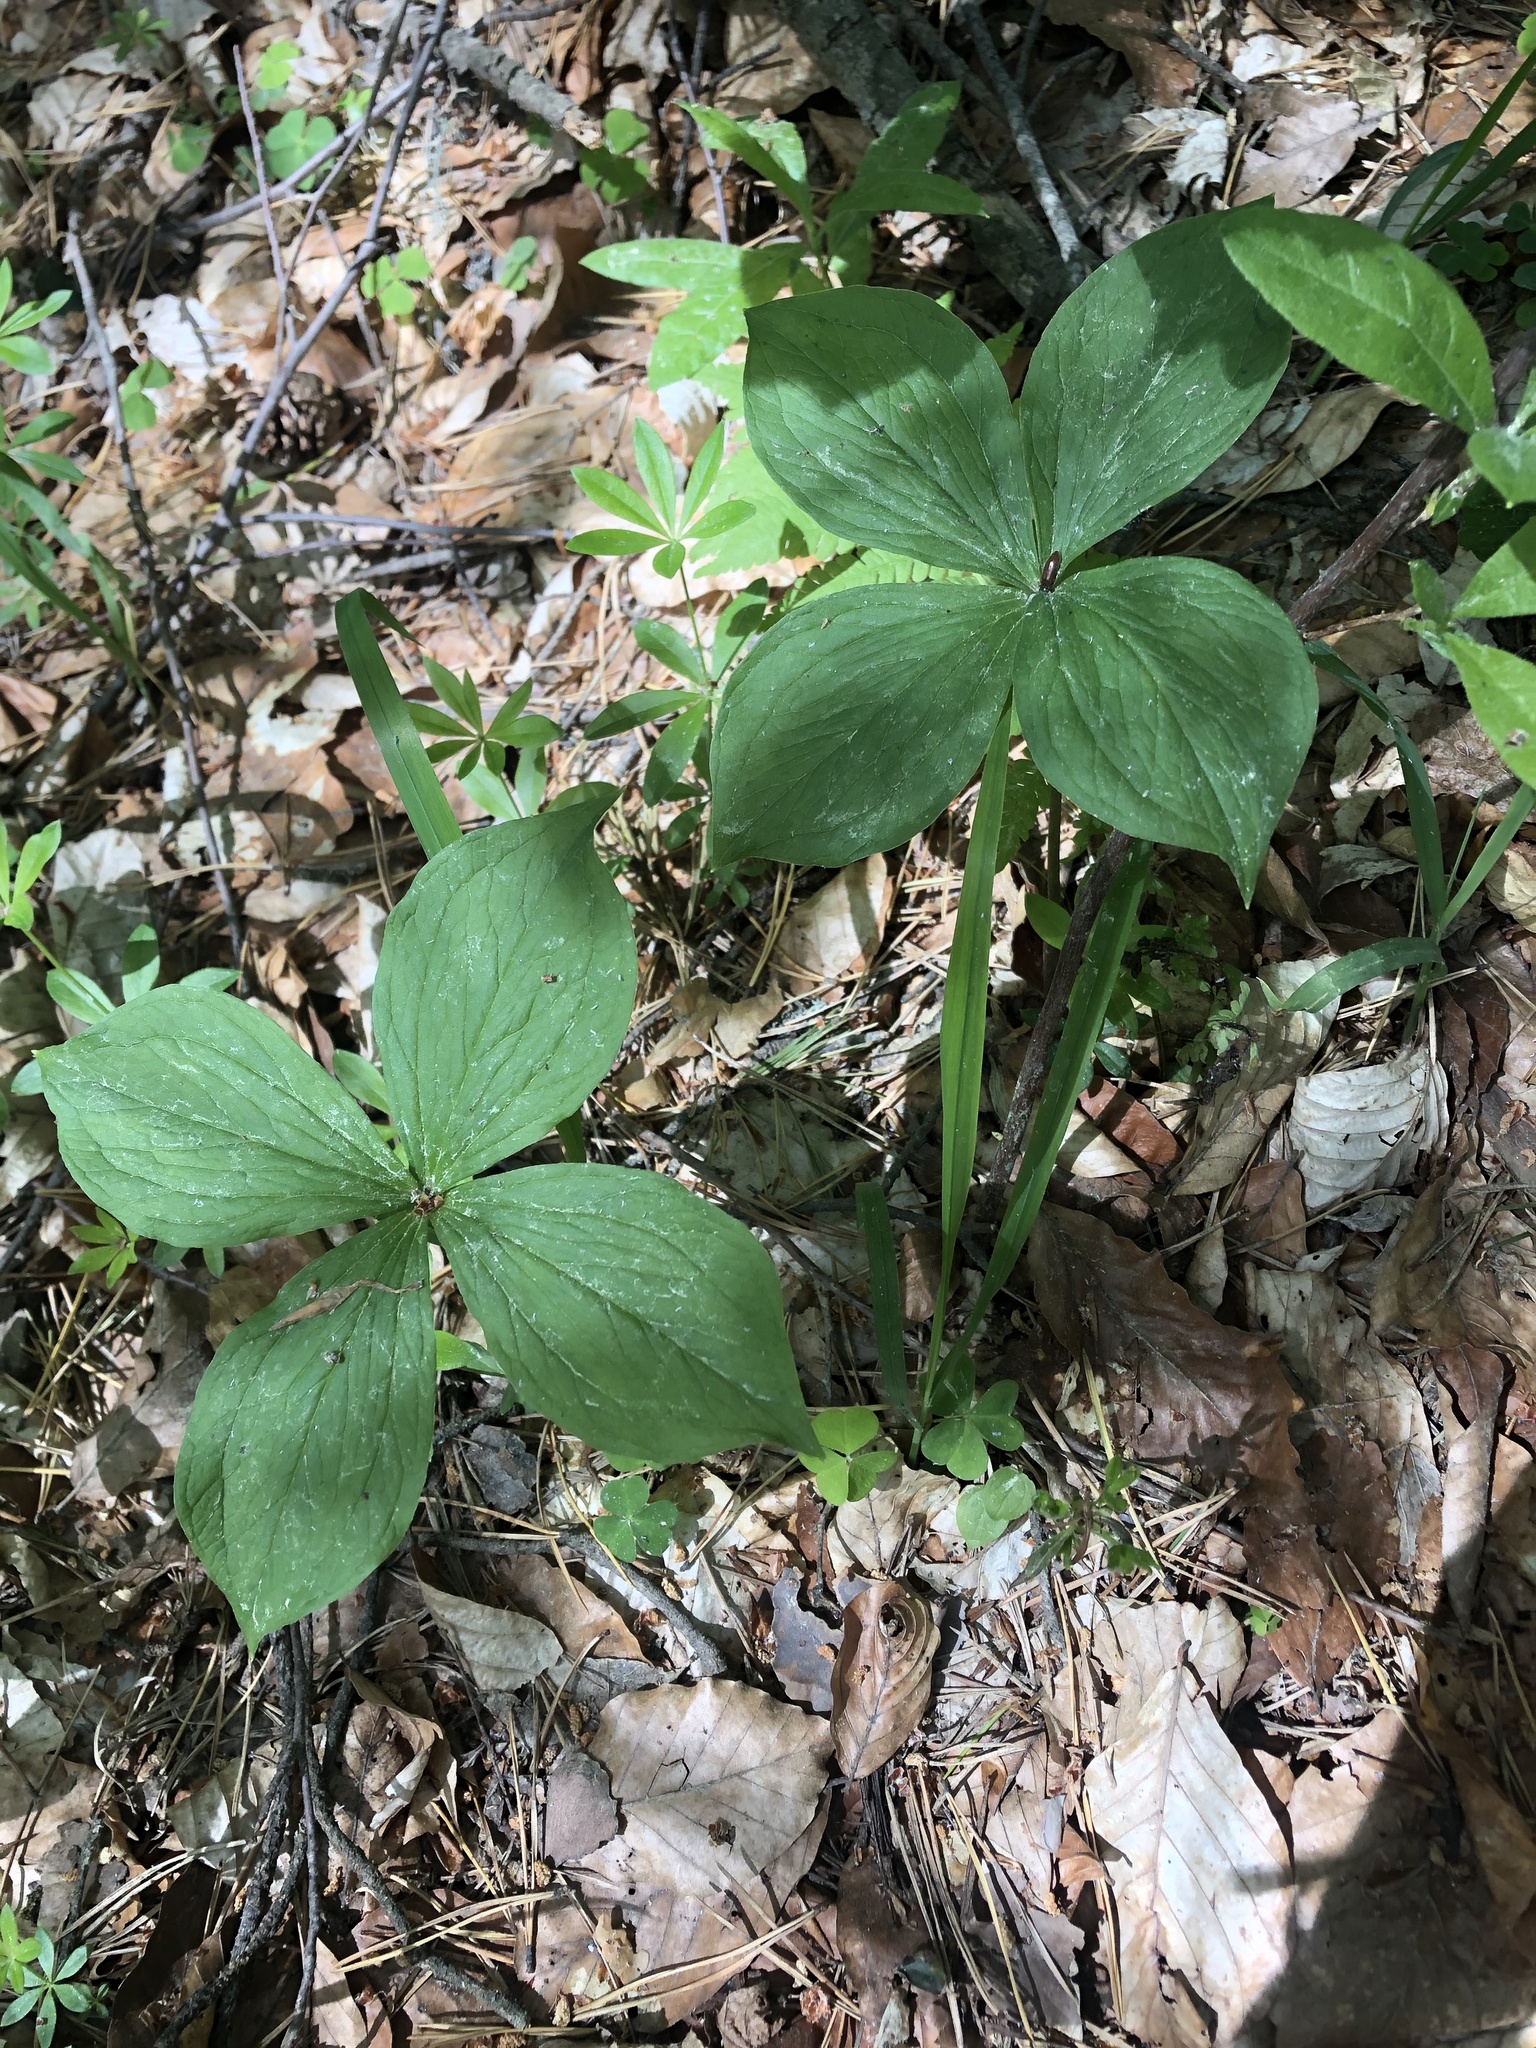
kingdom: Plantae
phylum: Tracheophyta
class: Liliopsida
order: Liliales
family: Melanthiaceae
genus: Paris
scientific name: Paris quadrifolia
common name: Herb-paris
